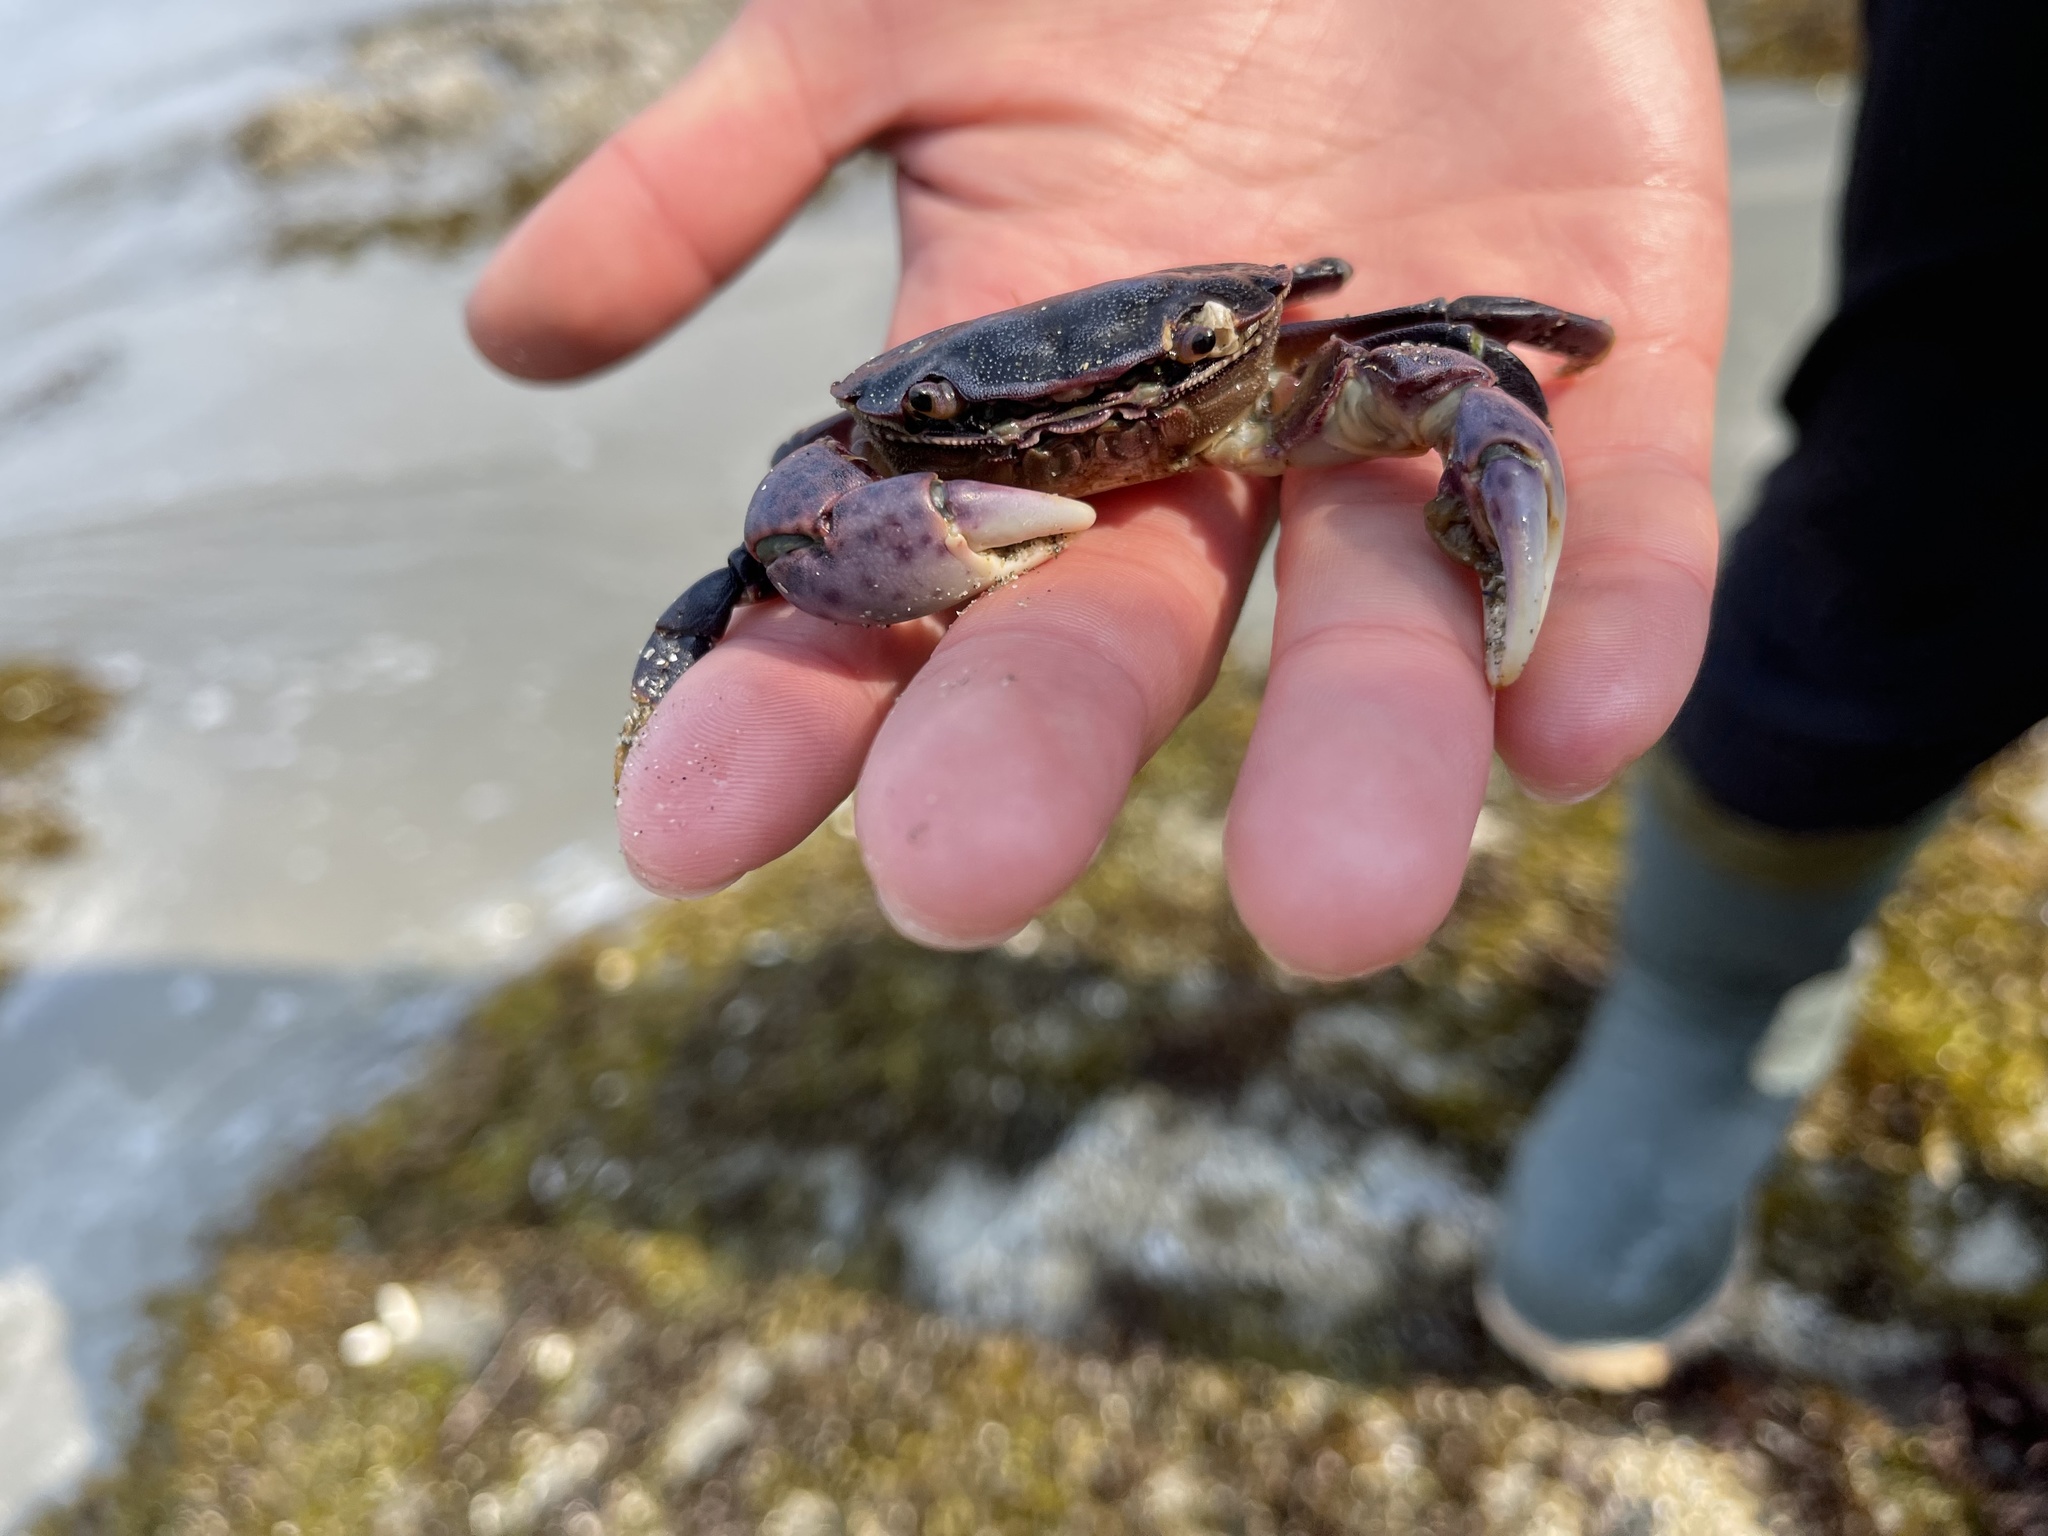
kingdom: Animalia
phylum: Arthropoda
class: Malacostraca
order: Decapoda
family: Varunidae
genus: Hemigrapsus
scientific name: Hemigrapsus nudus
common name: Purple shore crab
